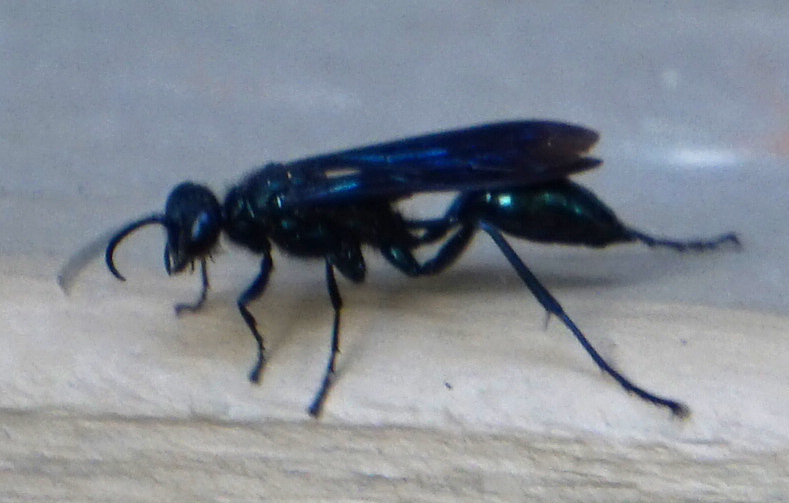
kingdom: Animalia
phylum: Arthropoda
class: Insecta
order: Hymenoptera
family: Sphecidae
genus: Chalybion
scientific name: Chalybion californicum
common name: Mud dauber
